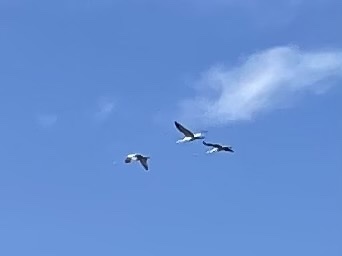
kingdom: Animalia
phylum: Chordata
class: Aves
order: Gruiformes
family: Gruidae
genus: Grus
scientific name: Grus canadensis
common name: Sandhill crane
